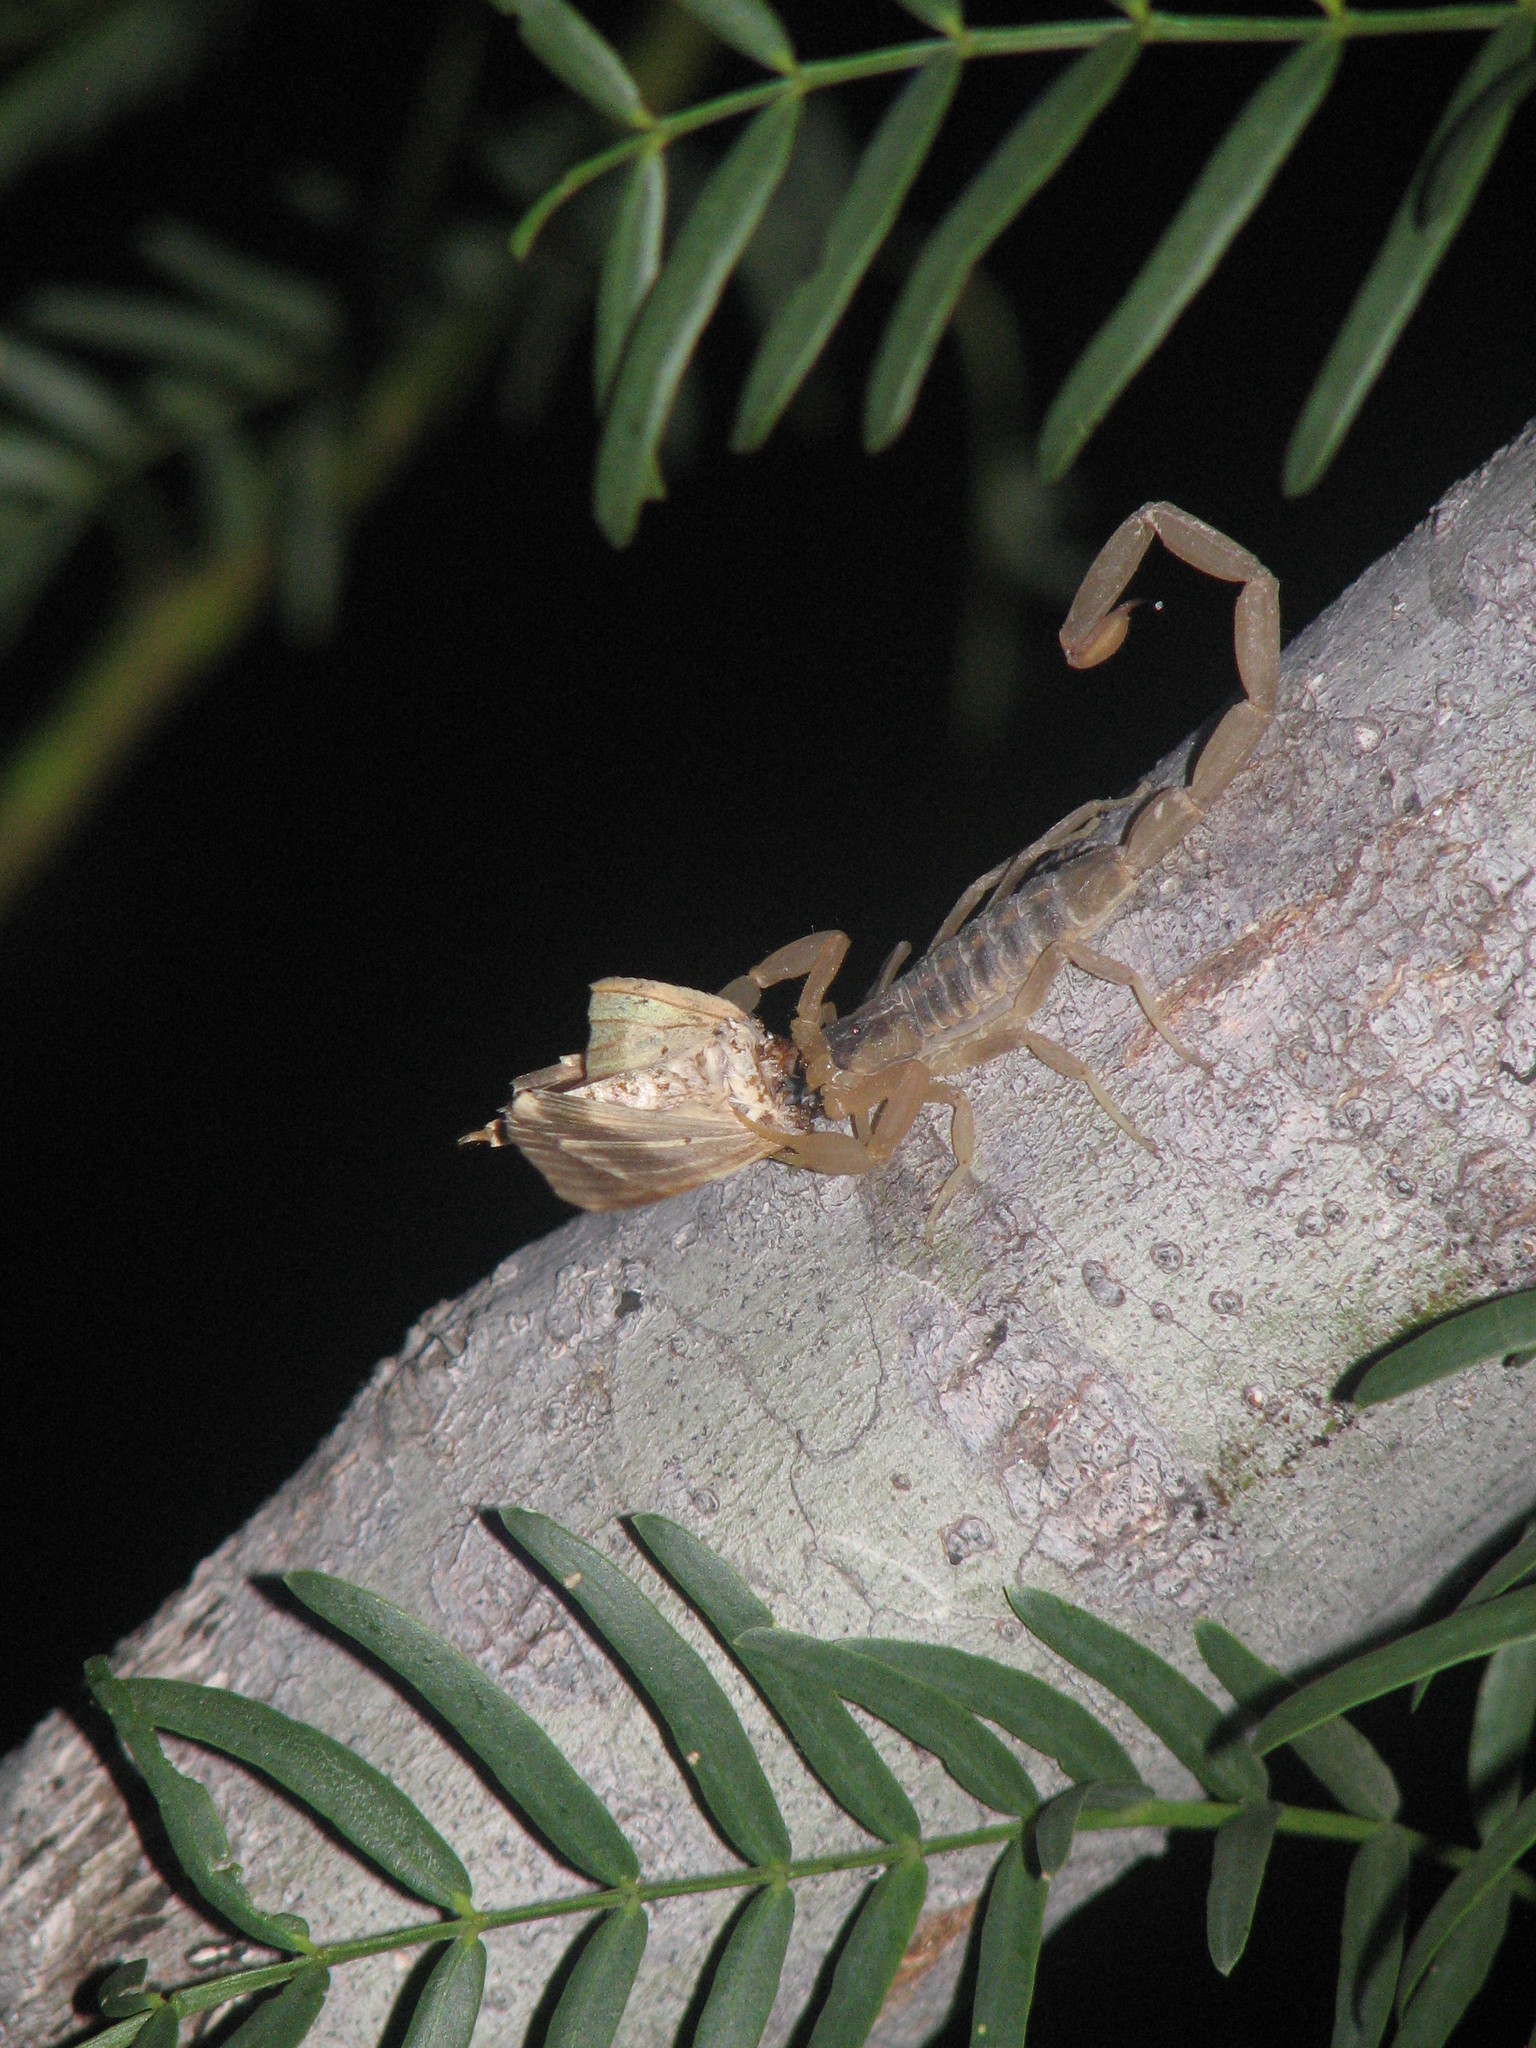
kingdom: Animalia
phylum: Arthropoda
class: Arachnida
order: Scorpiones
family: Buthidae
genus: Centruroides
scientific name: Centruroides vittatus
